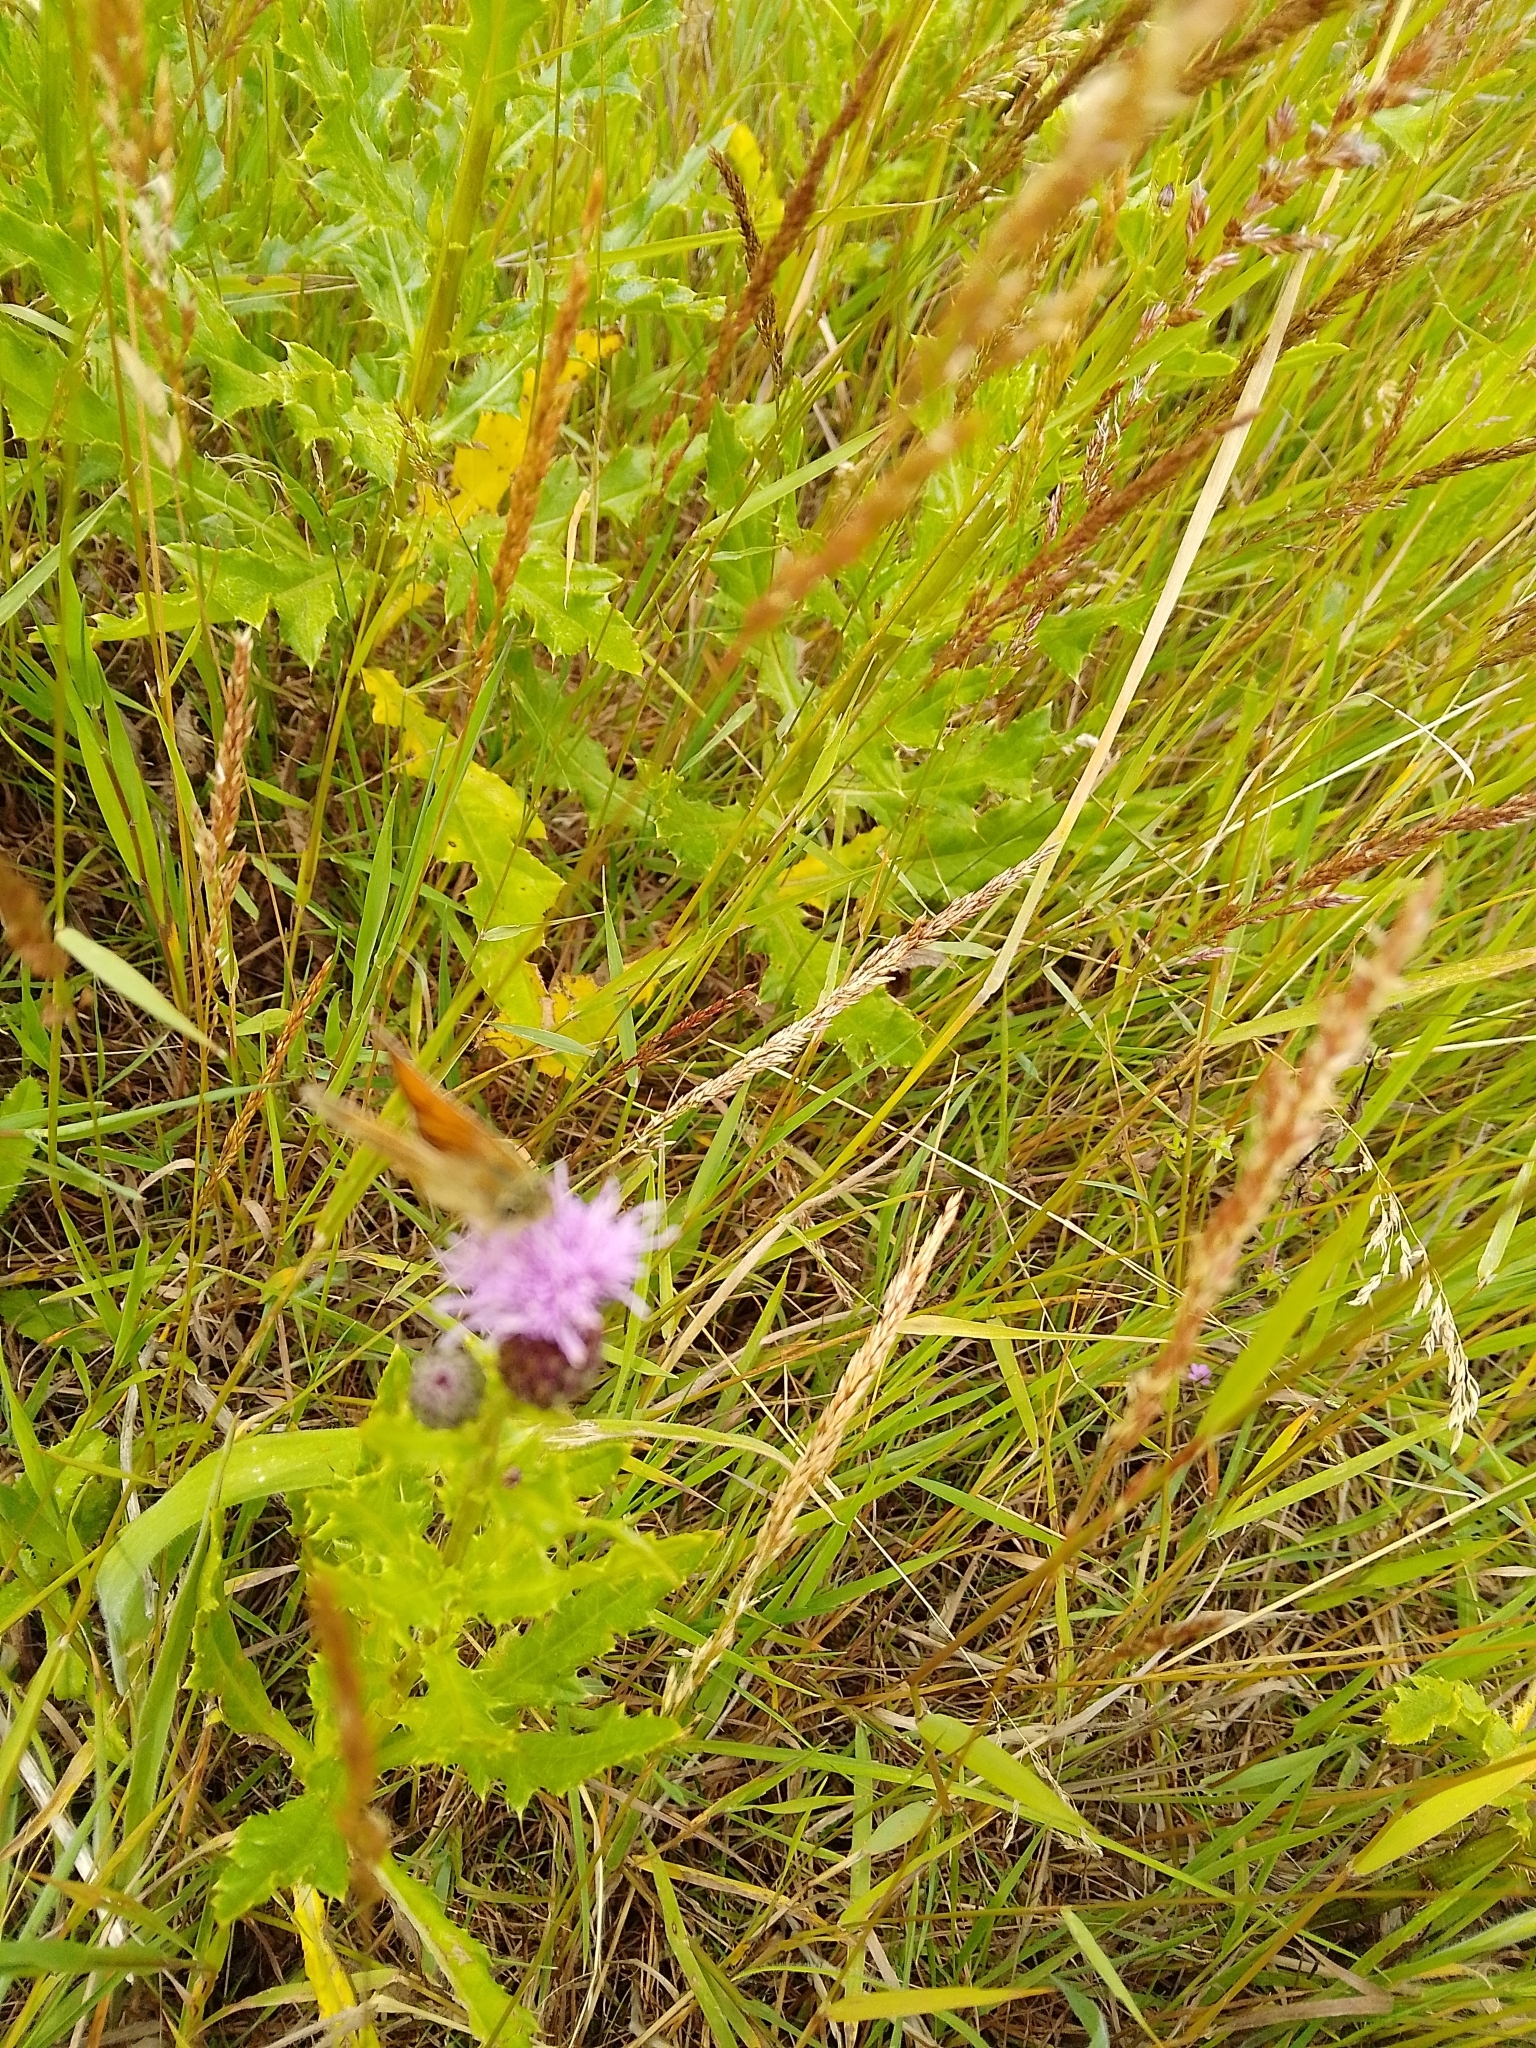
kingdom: Animalia
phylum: Arthropoda
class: Insecta
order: Lepidoptera
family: Hesperiidae
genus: Thymelicus
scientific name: Thymelicus sylvestris
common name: Small skipper
